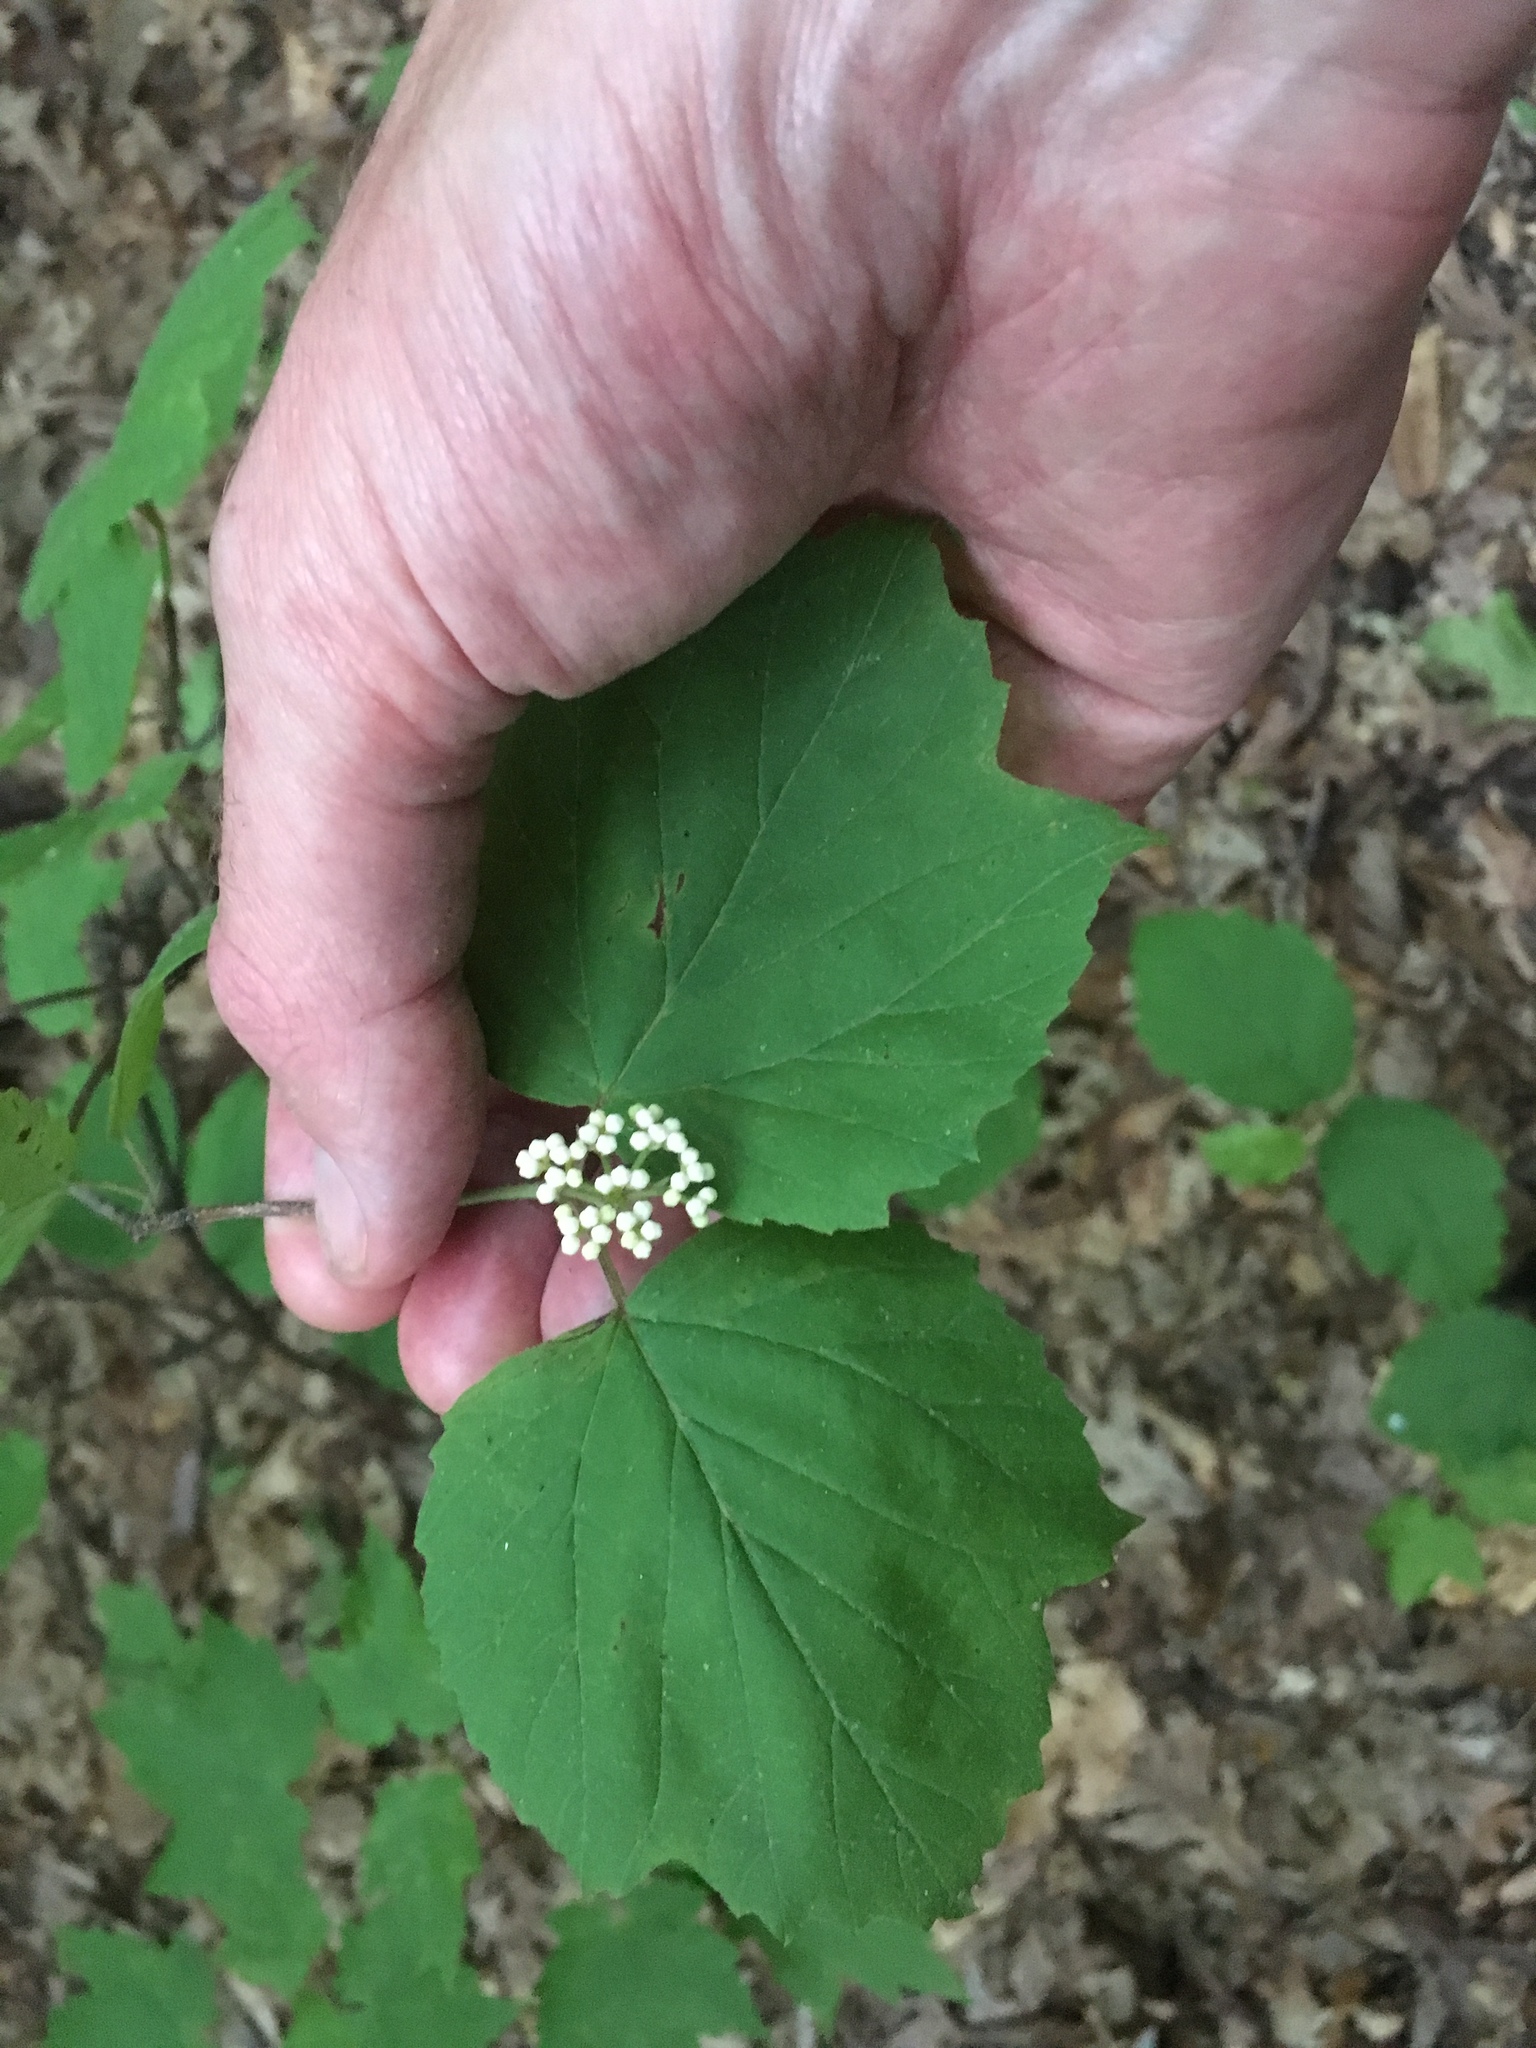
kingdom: Plantae
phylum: Tracheophyta
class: Magnoliopsida
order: Dipsacales
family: Viburnaceae
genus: Viburnum
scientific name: Viburnum acerifolium
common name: Dockmackie
